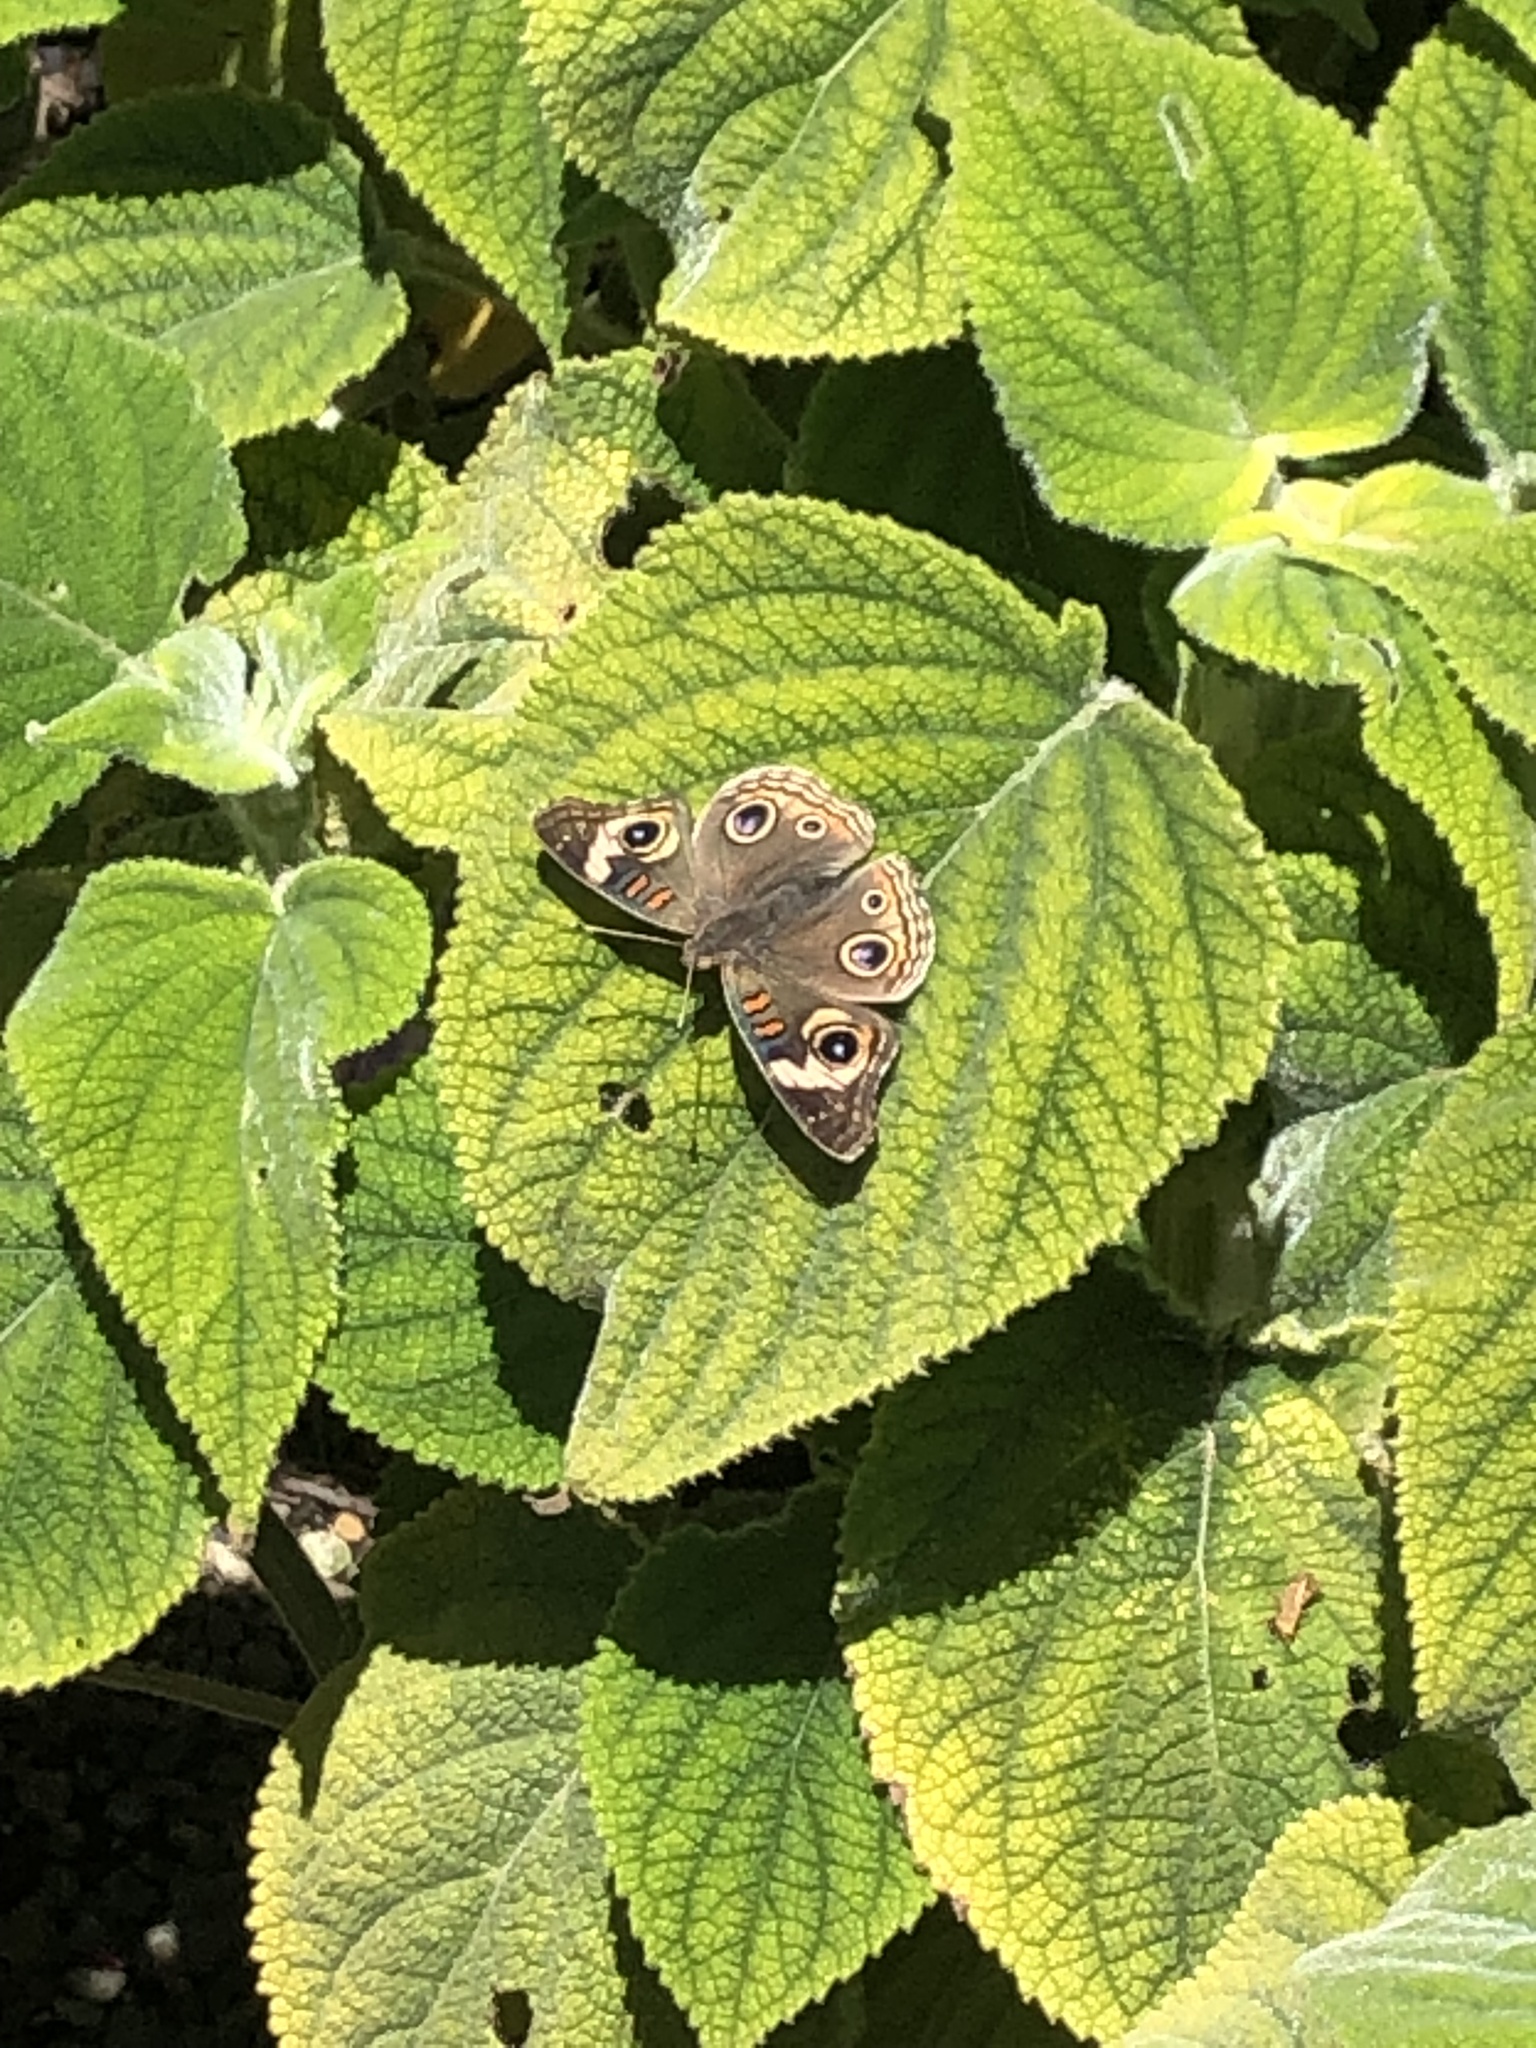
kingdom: Animalia
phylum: Arthropoda
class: Insecta
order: Lepidoptera
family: Nymphalidae
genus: Junonia
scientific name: Junonia grisea
